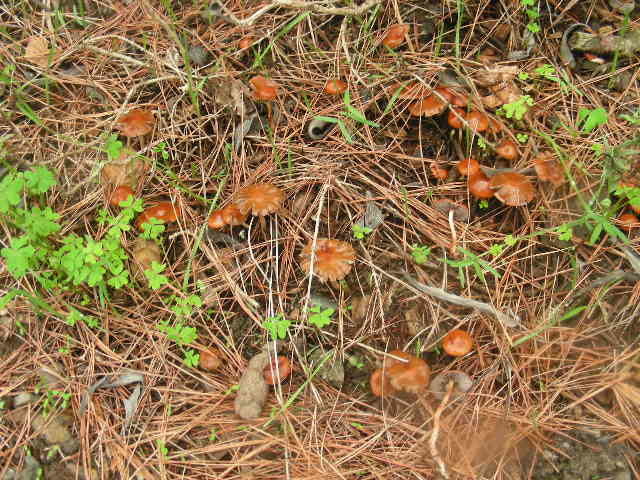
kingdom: Fungi
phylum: Basidiomycota
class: Agaricomycetes
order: Agaricales
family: Strophariaceae
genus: Leratiomyces
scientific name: Leratiomyces ceres
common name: Redlead roundhead
